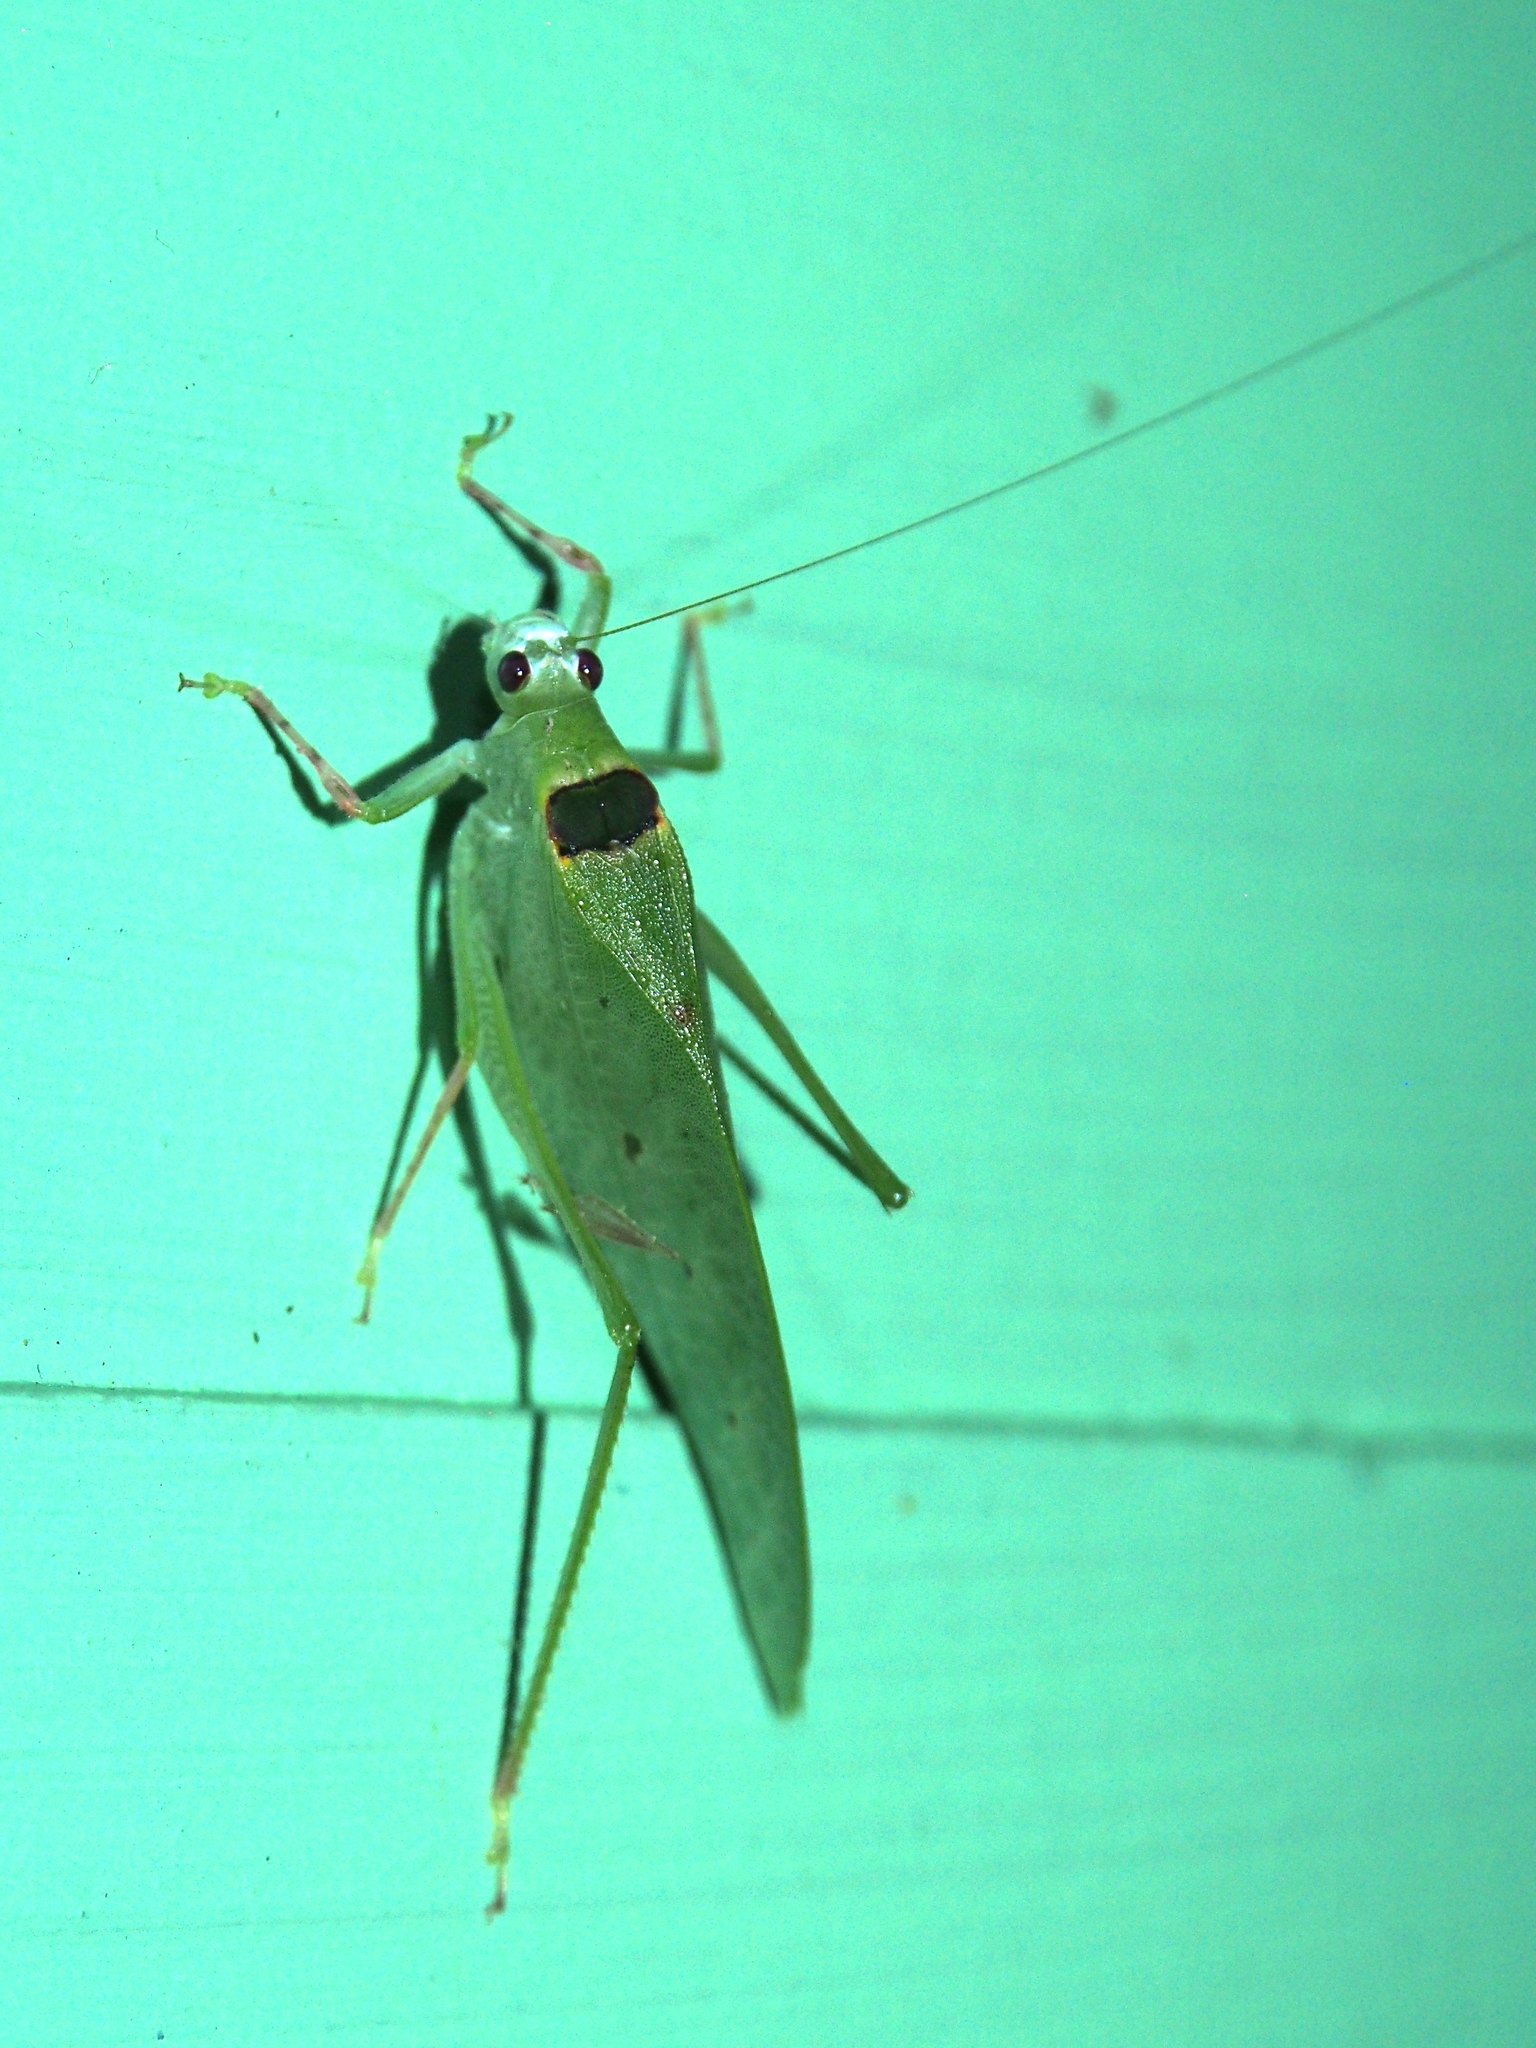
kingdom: Animalia
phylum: Arthropoda
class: Insecta
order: Orthoptera
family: Tettigoniidae
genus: Phylloptera
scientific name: Phylloptera quinque-maculata
